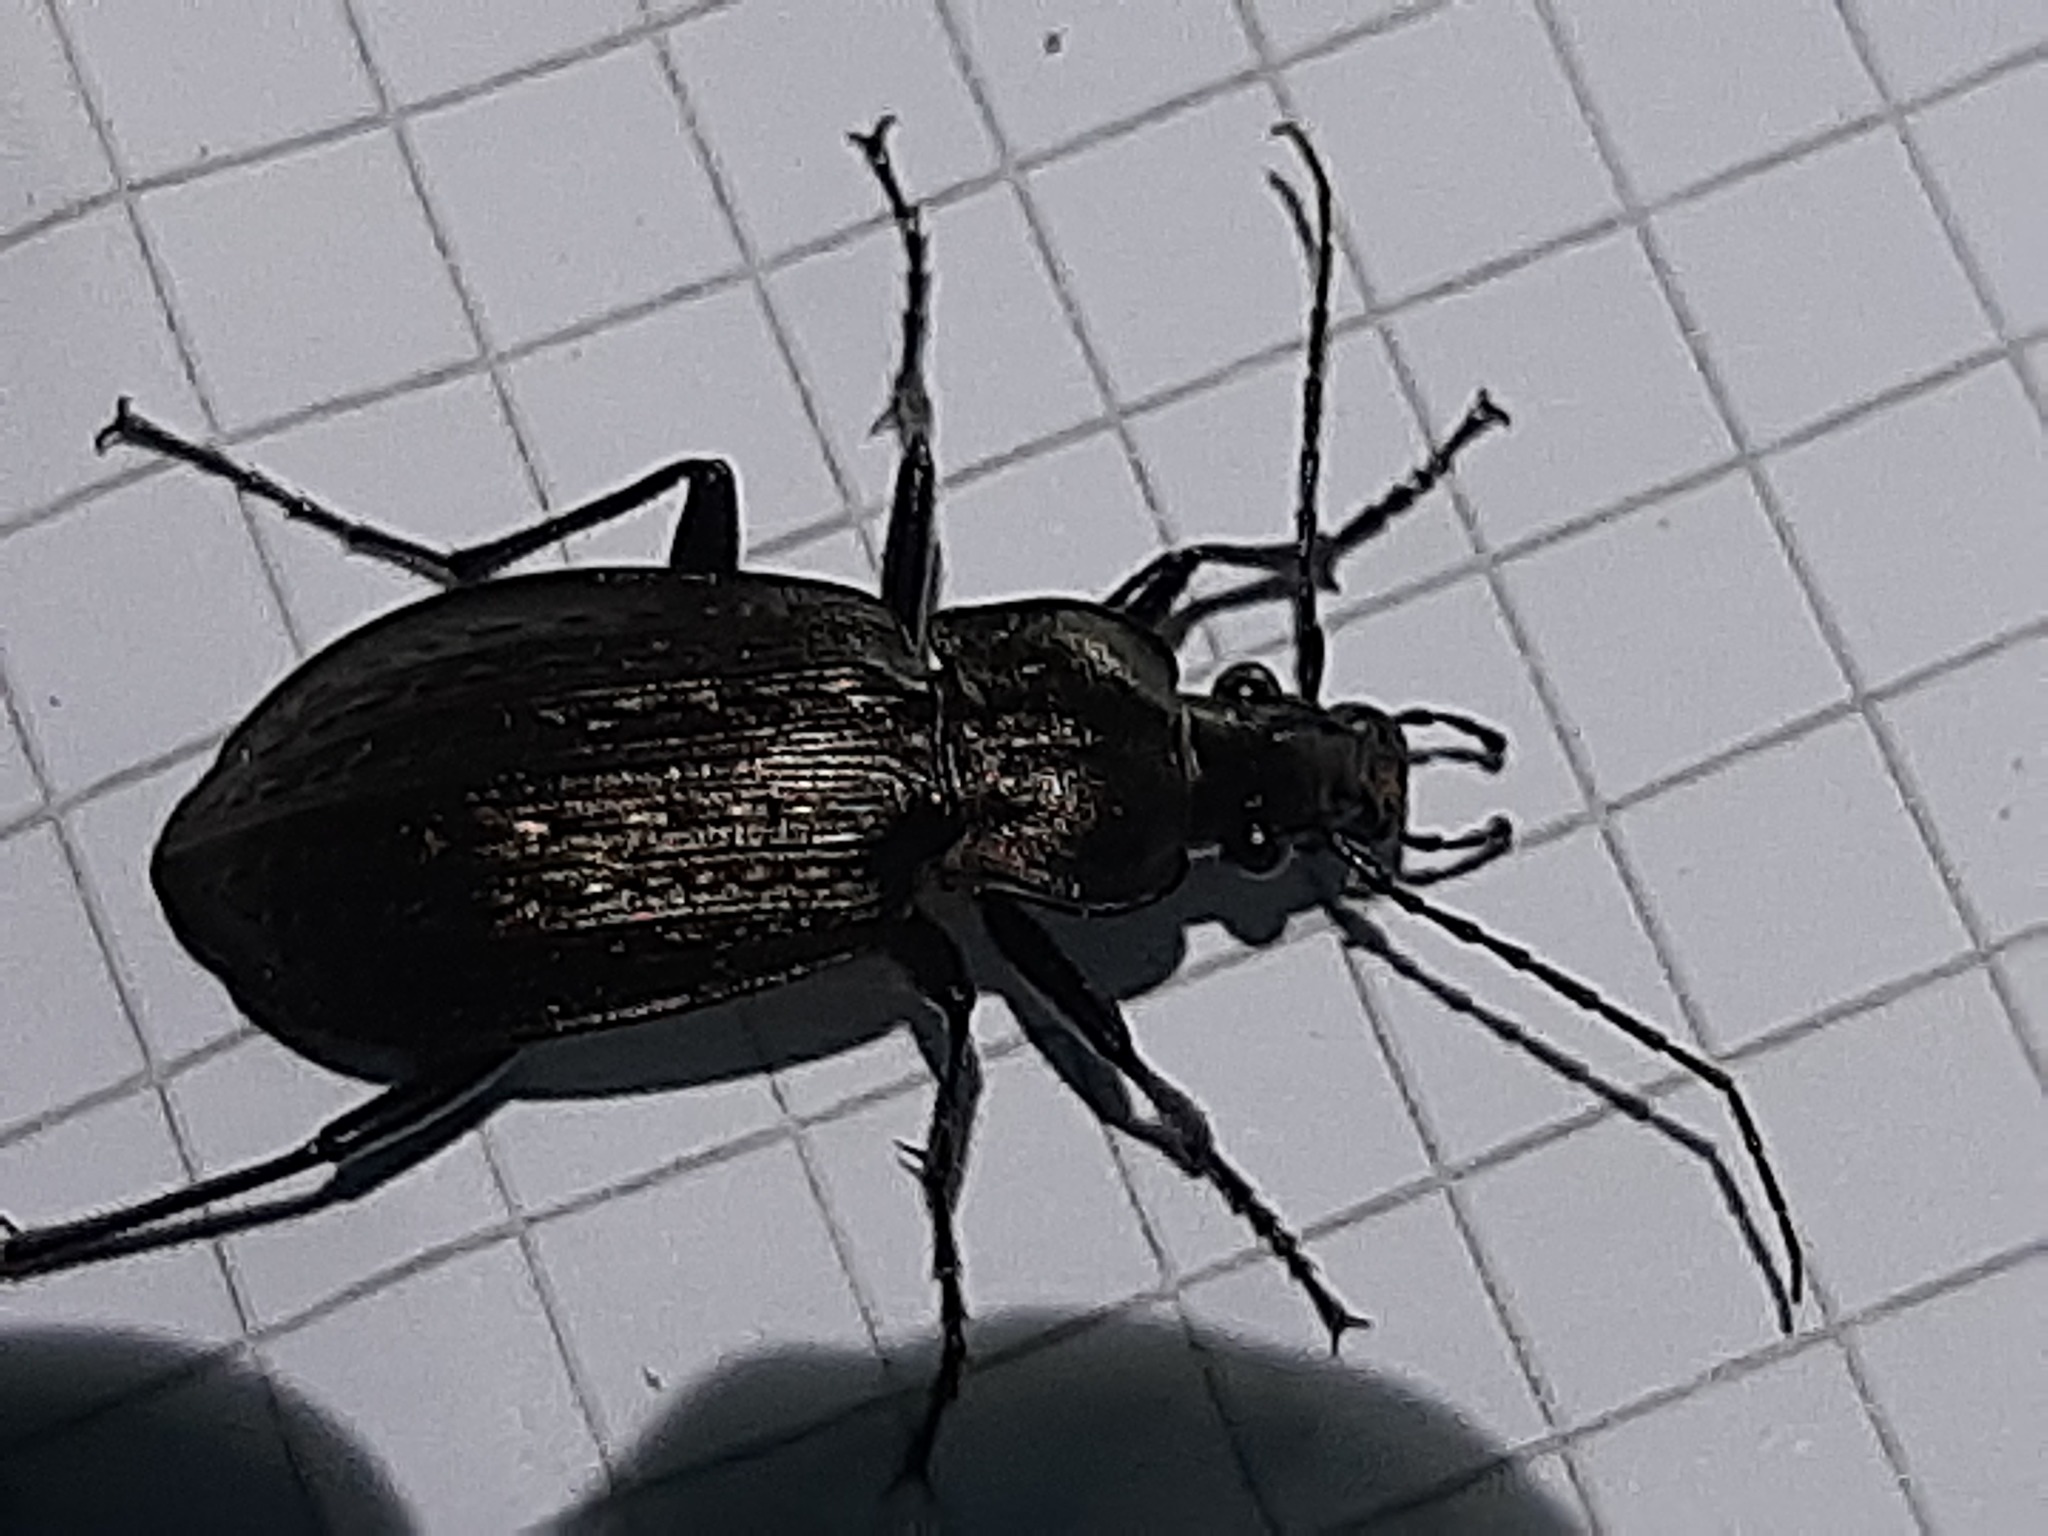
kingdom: Animalia
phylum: Arthropoda
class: Insecta
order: Coleoptera
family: Carabidae
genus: Carabus
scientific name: Carabus granulatus
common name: Granulate ground beetle
